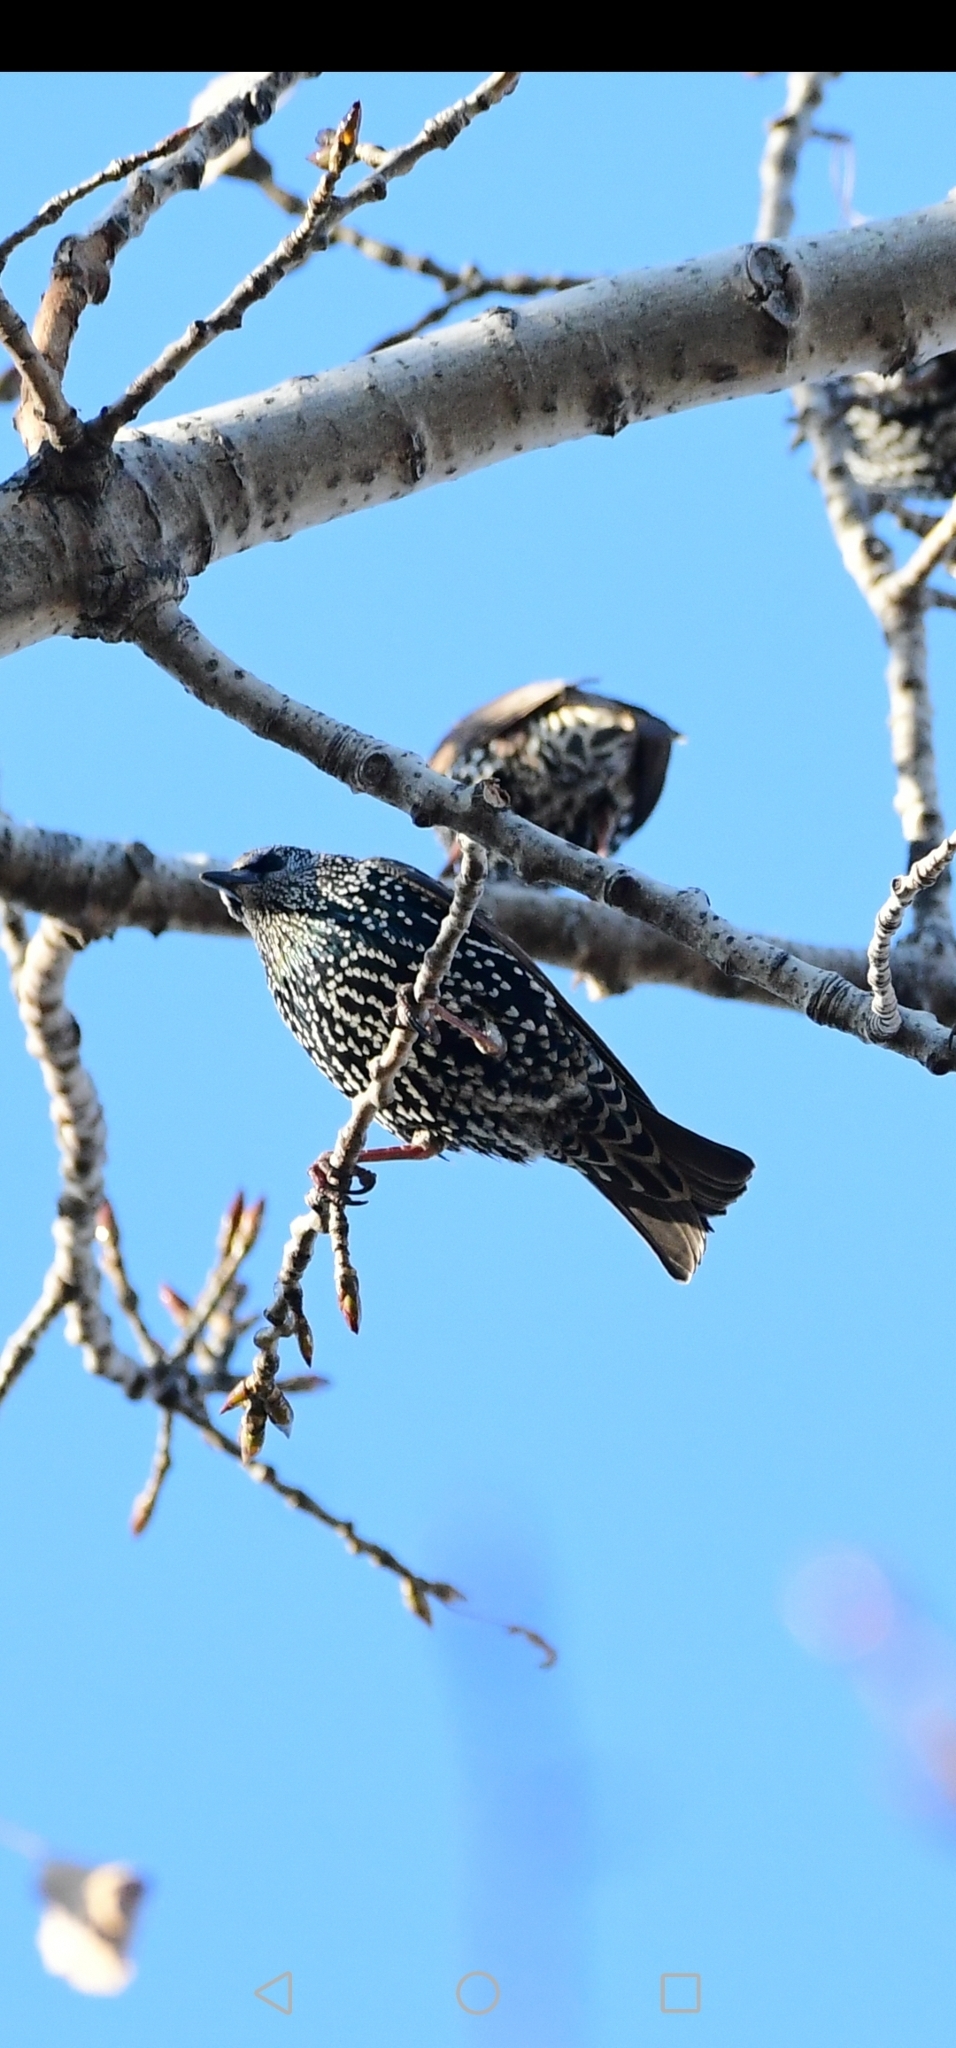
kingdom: Animalia
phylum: Chordata
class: Aves
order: Passeriformes
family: Sturnidae
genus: Sturnus
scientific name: Sturnus vulgaris
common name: Common starling
